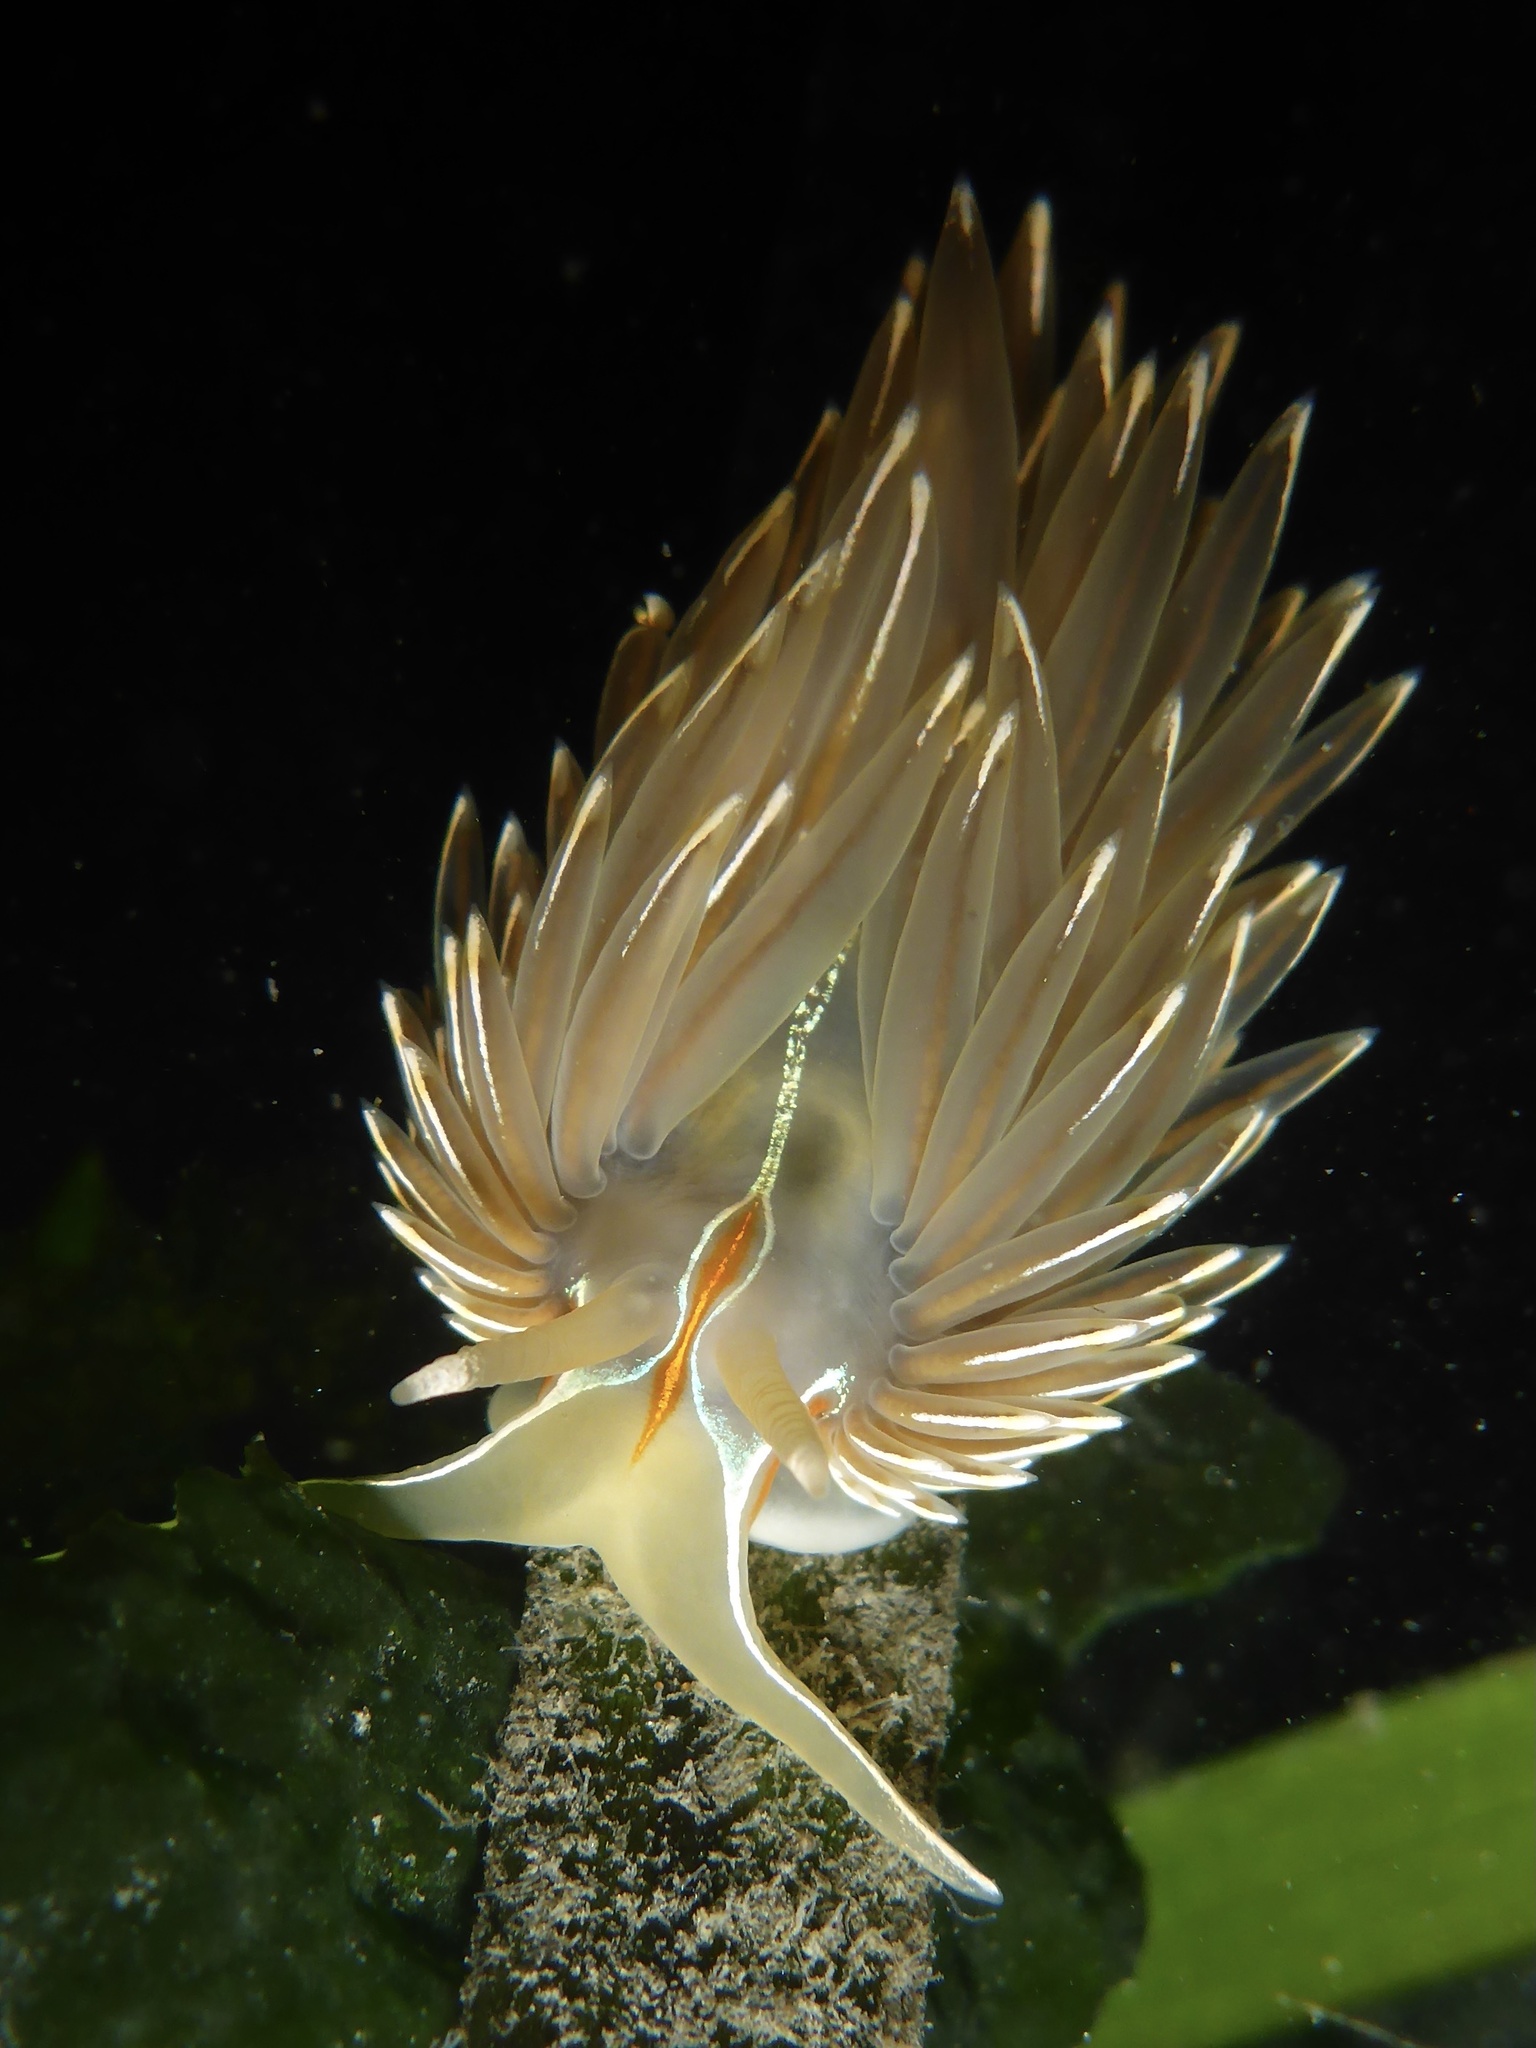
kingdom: Animalia
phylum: Mollusca
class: Gastropoda
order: Nudibranchia
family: Myrrhinidae
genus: Hermissenda
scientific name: Hermissenda crassicornis
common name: Hermissenda
